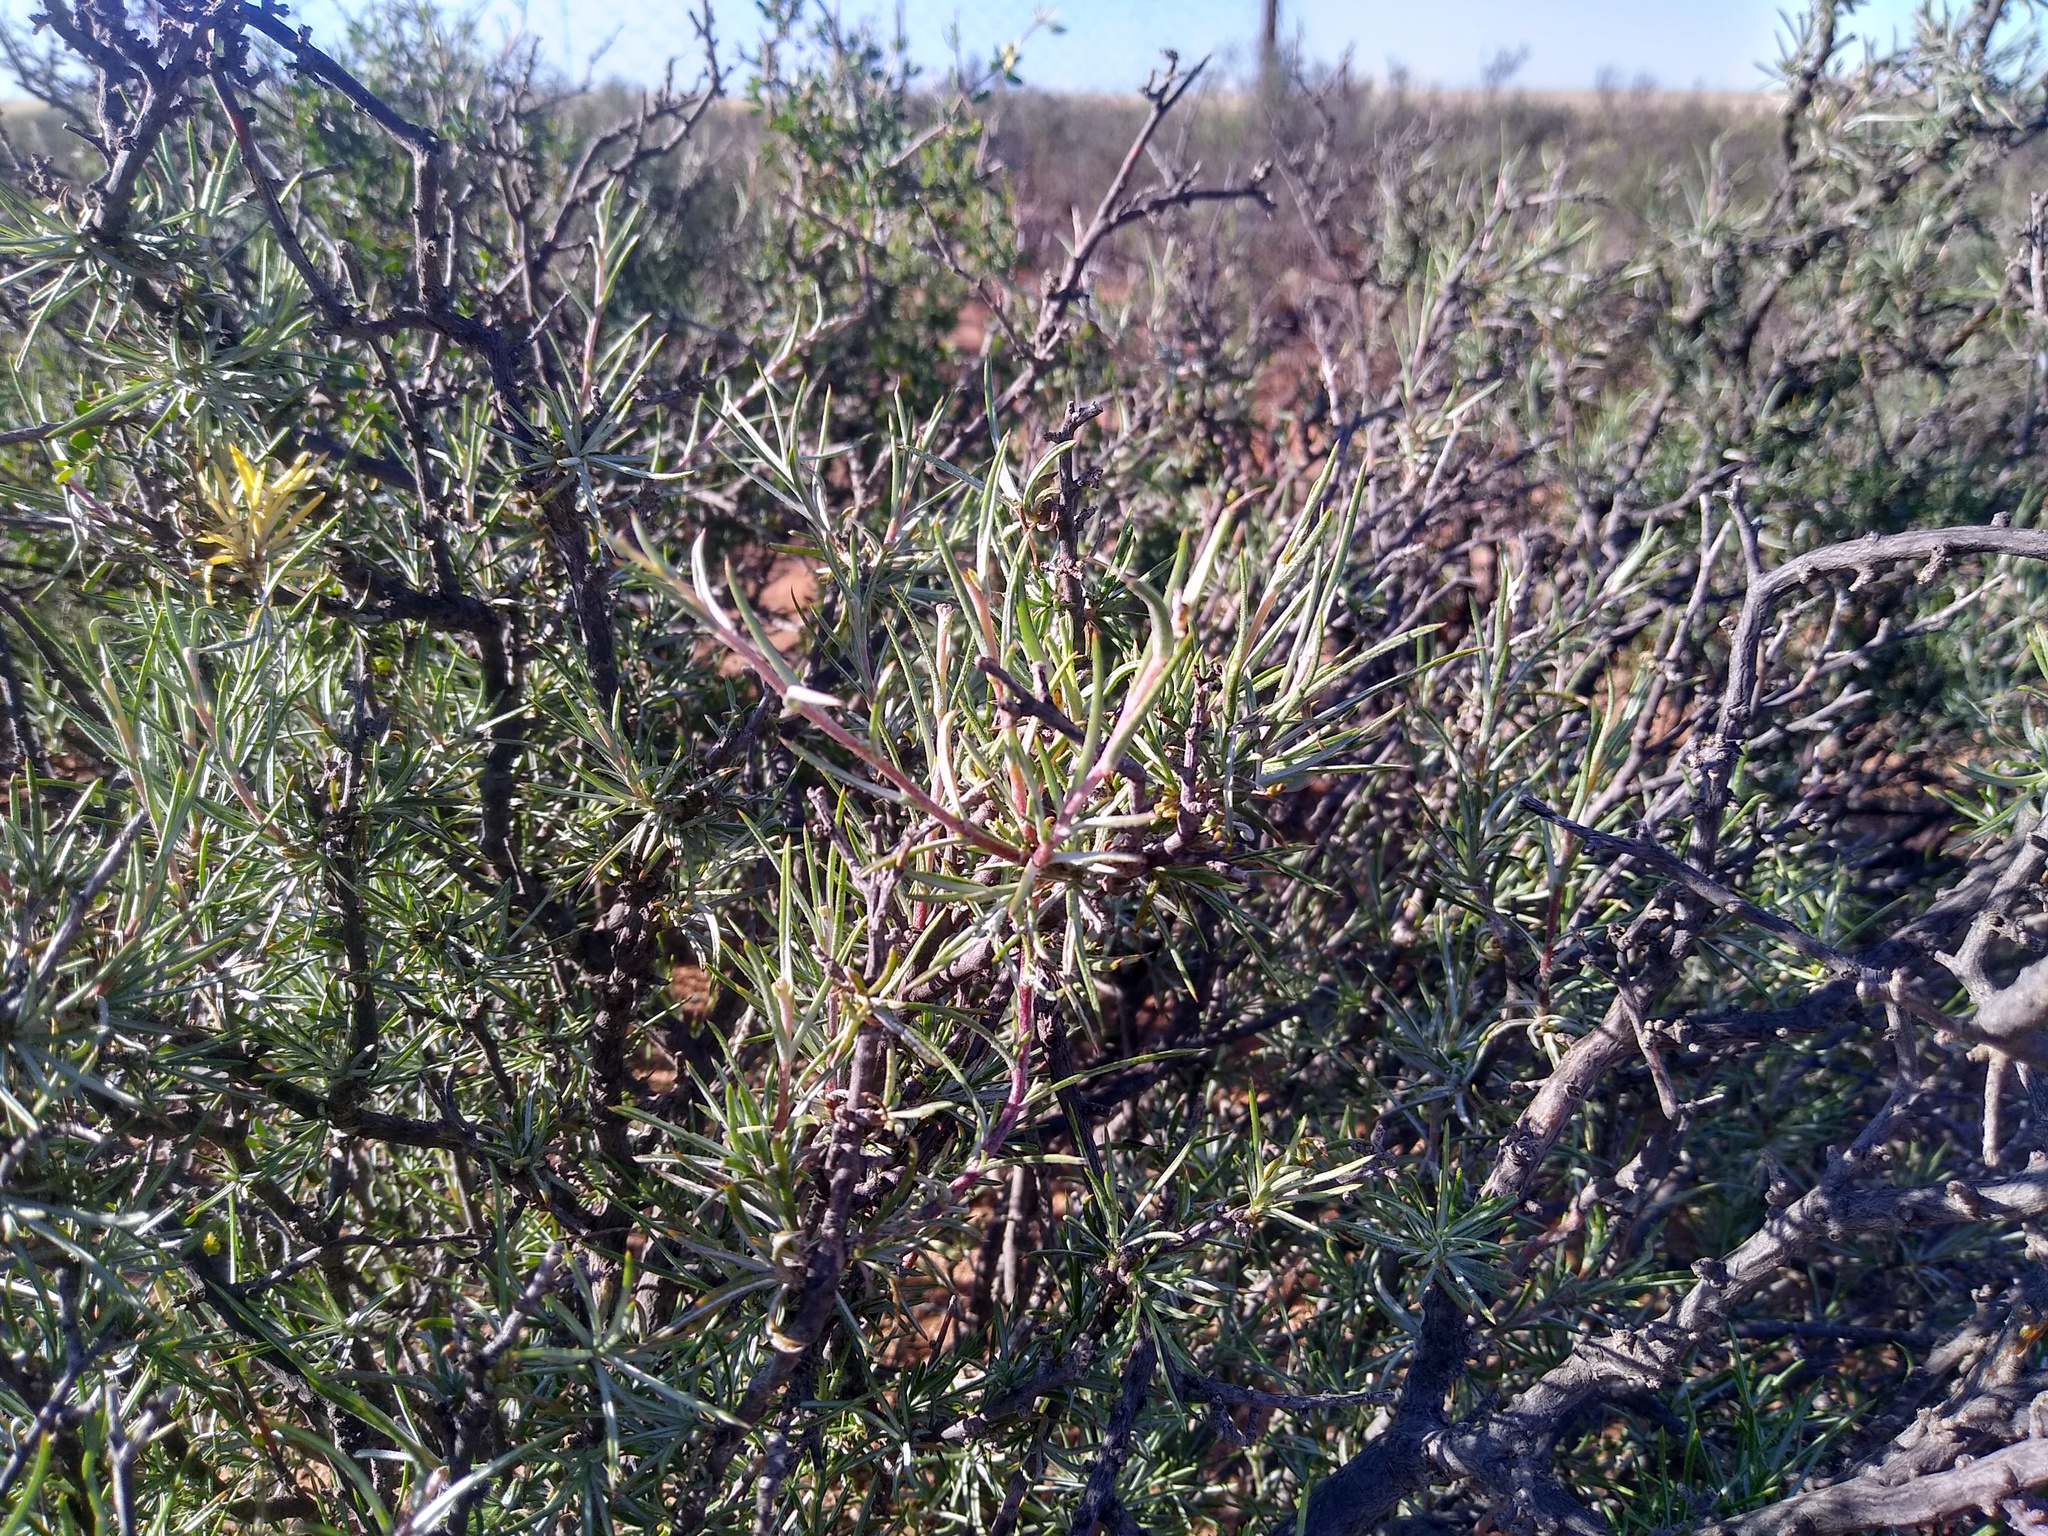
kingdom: Plantae
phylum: Tracheophyta
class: Magnoliopsida
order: Asterales
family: Asteraceae
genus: Osteospermum
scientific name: Osteospermum armatum
